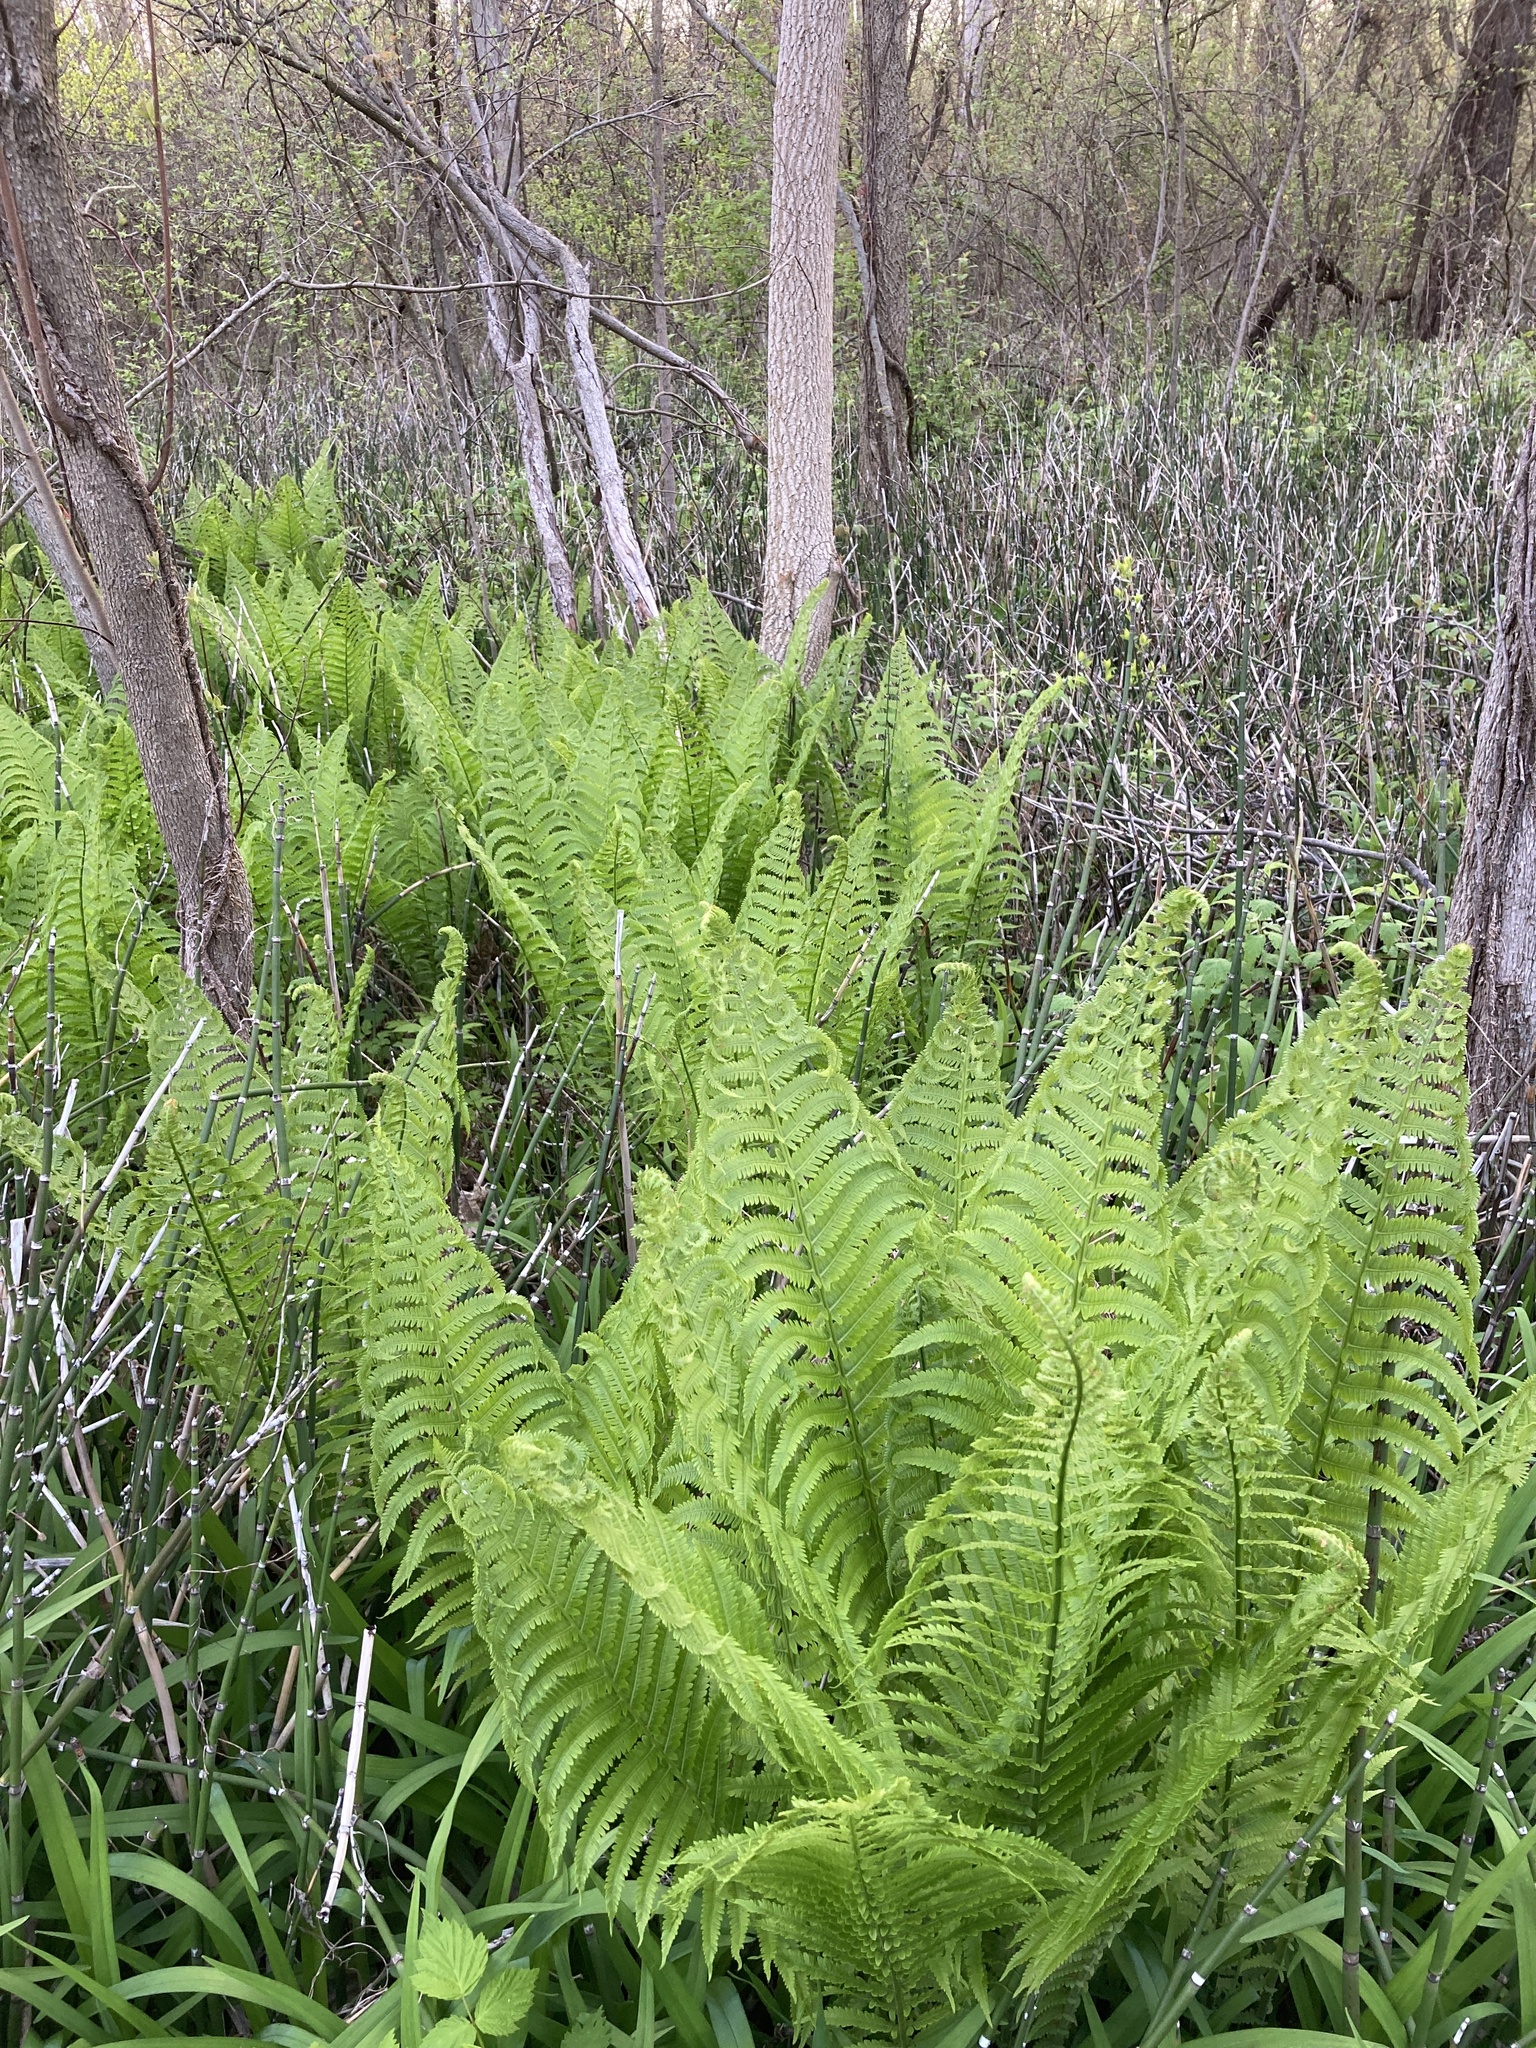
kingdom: Plantae
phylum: Tracheophyta
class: Polypodiopsida
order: Polypodiales
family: Onocleaceae
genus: Matteuccia
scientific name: Matteuccia struthiopteris
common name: Ostrich fern
